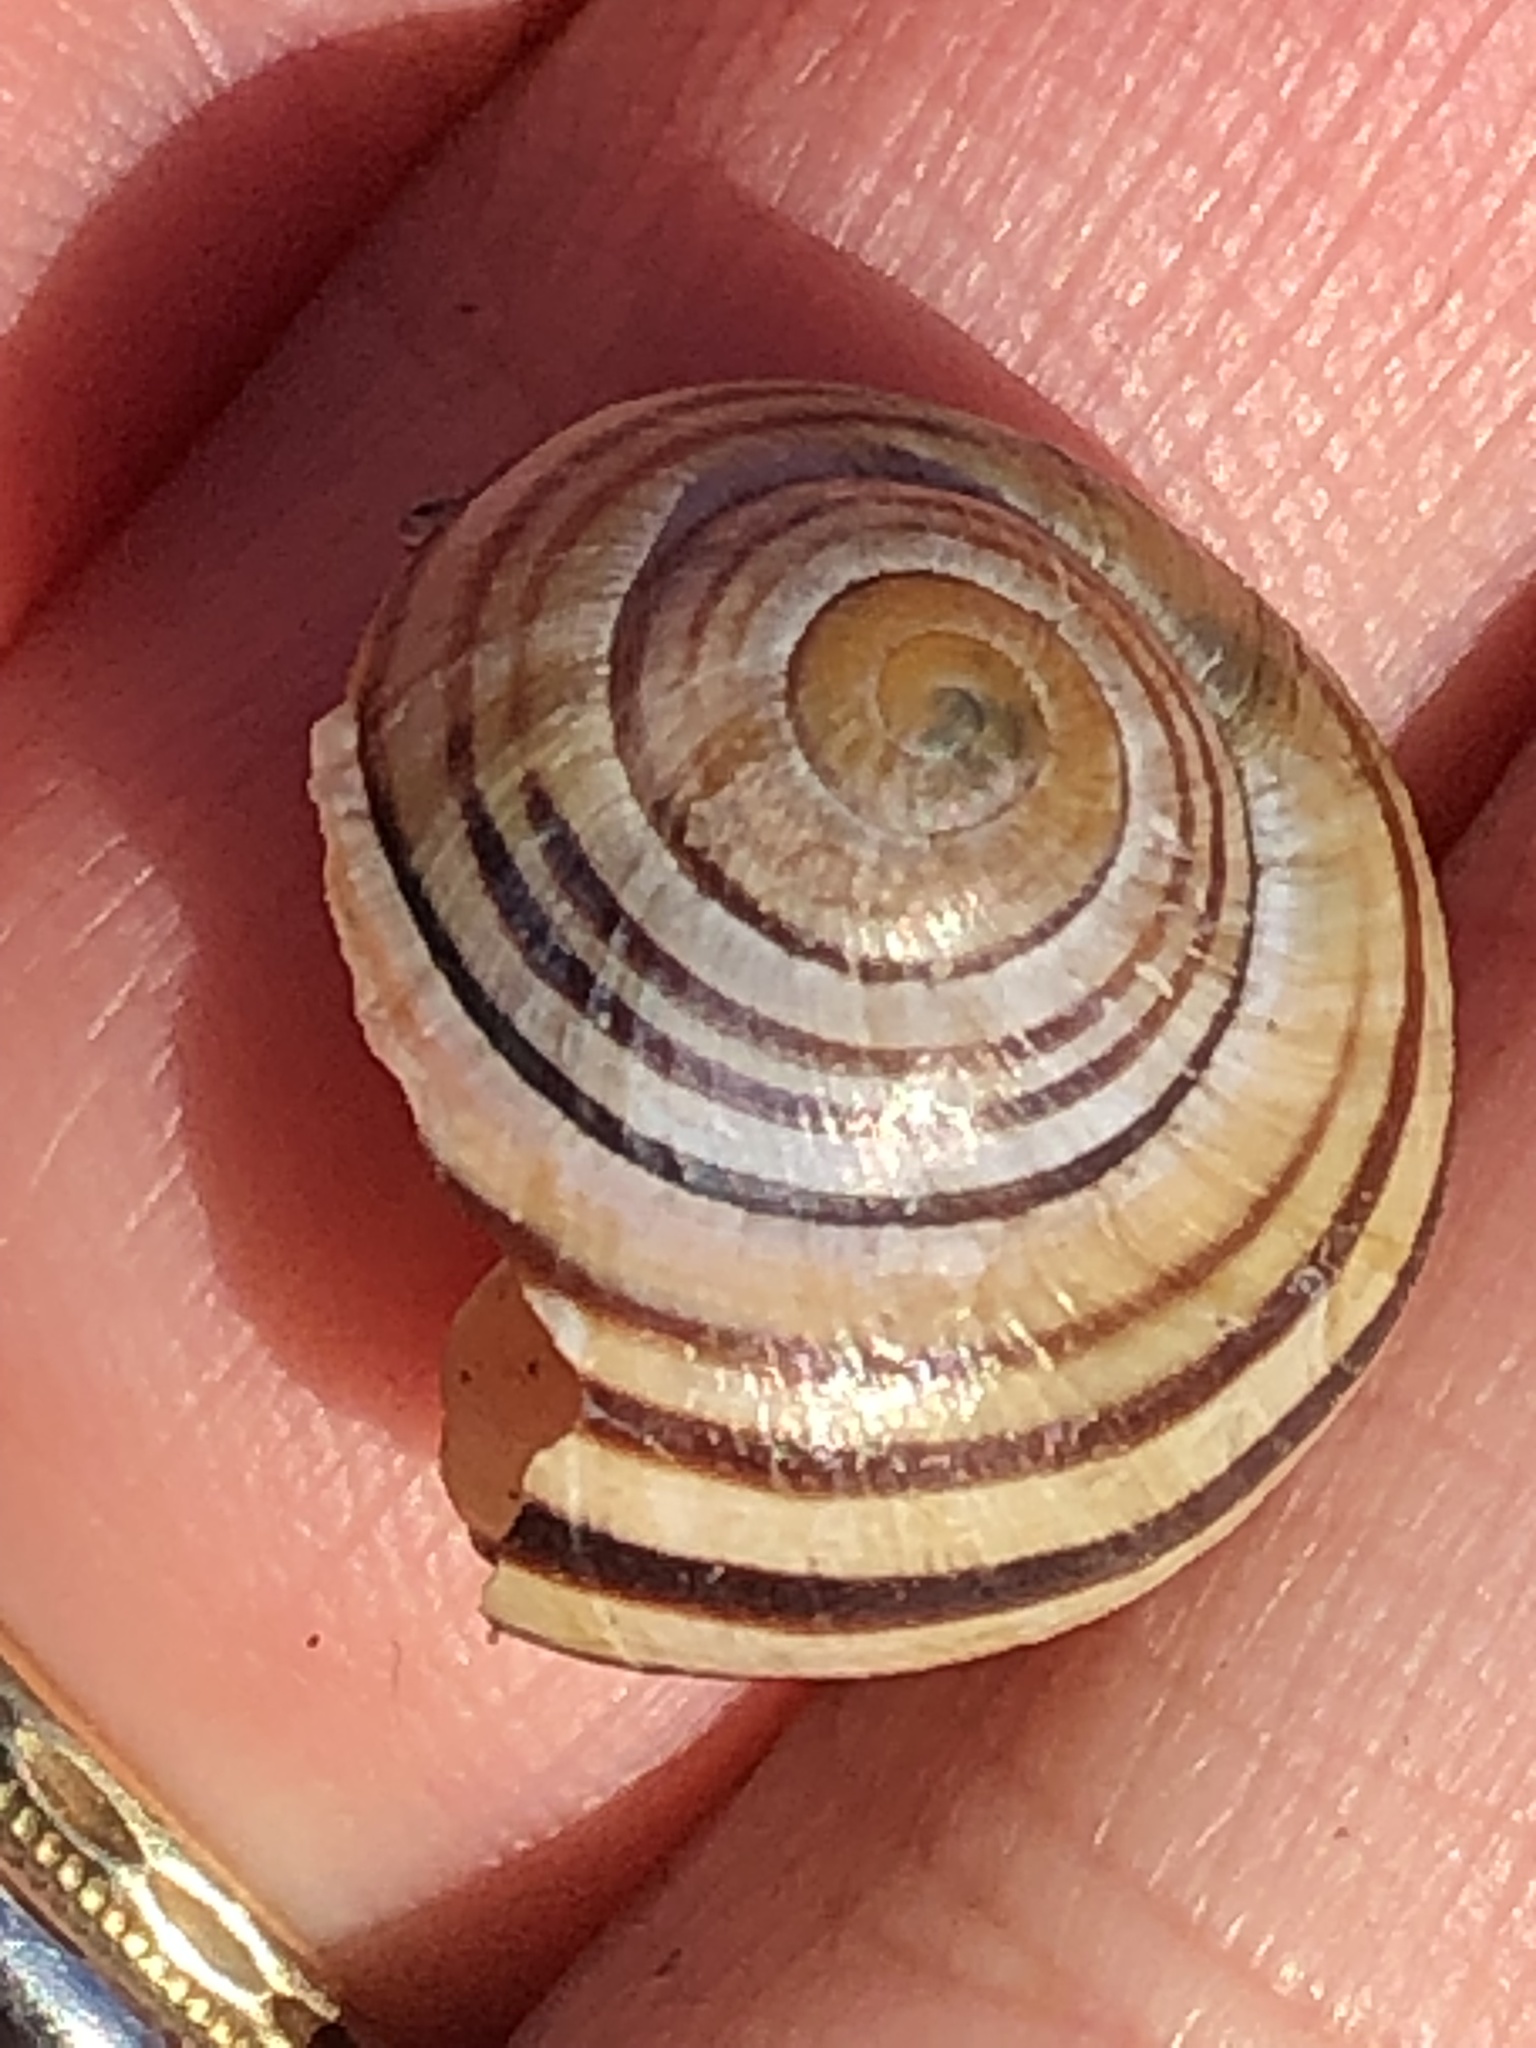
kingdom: Animalia
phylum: Mollusca
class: Gastropoda
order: Stylommatophora
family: Helicidae
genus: Cepaea
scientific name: Cepaea
